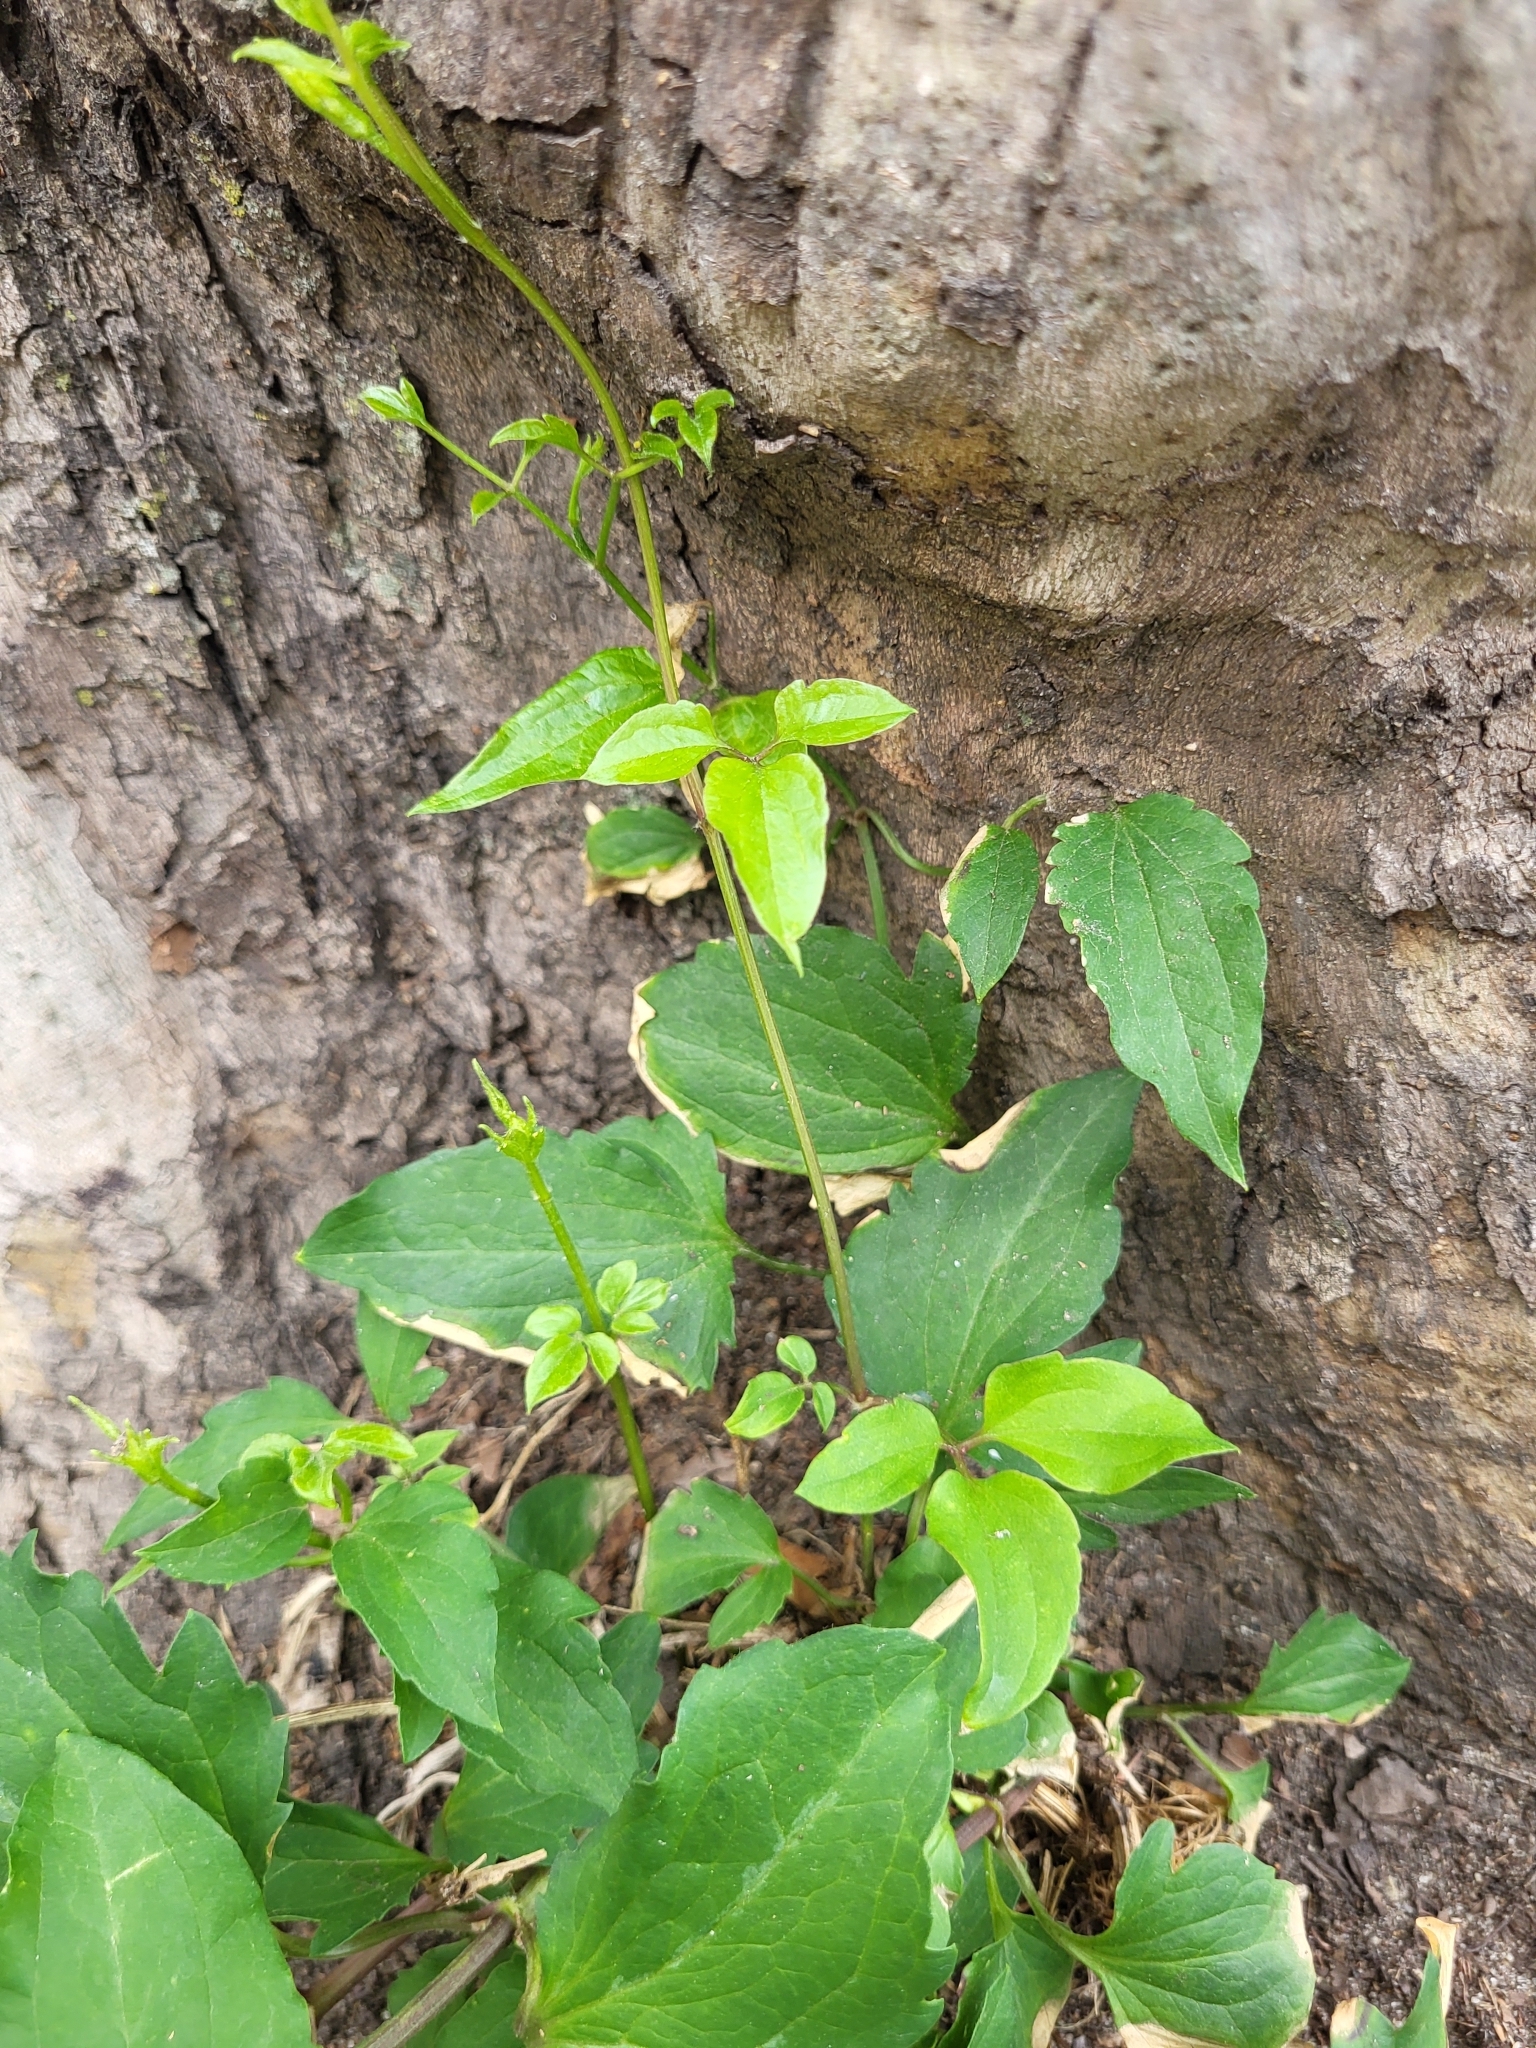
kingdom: Plantae
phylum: Tracheophyta
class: Magnoliopsida
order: Ranunculales
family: Ranunculaceae
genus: Clematis
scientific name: Clematis virginiana
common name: Virgin's-bower
